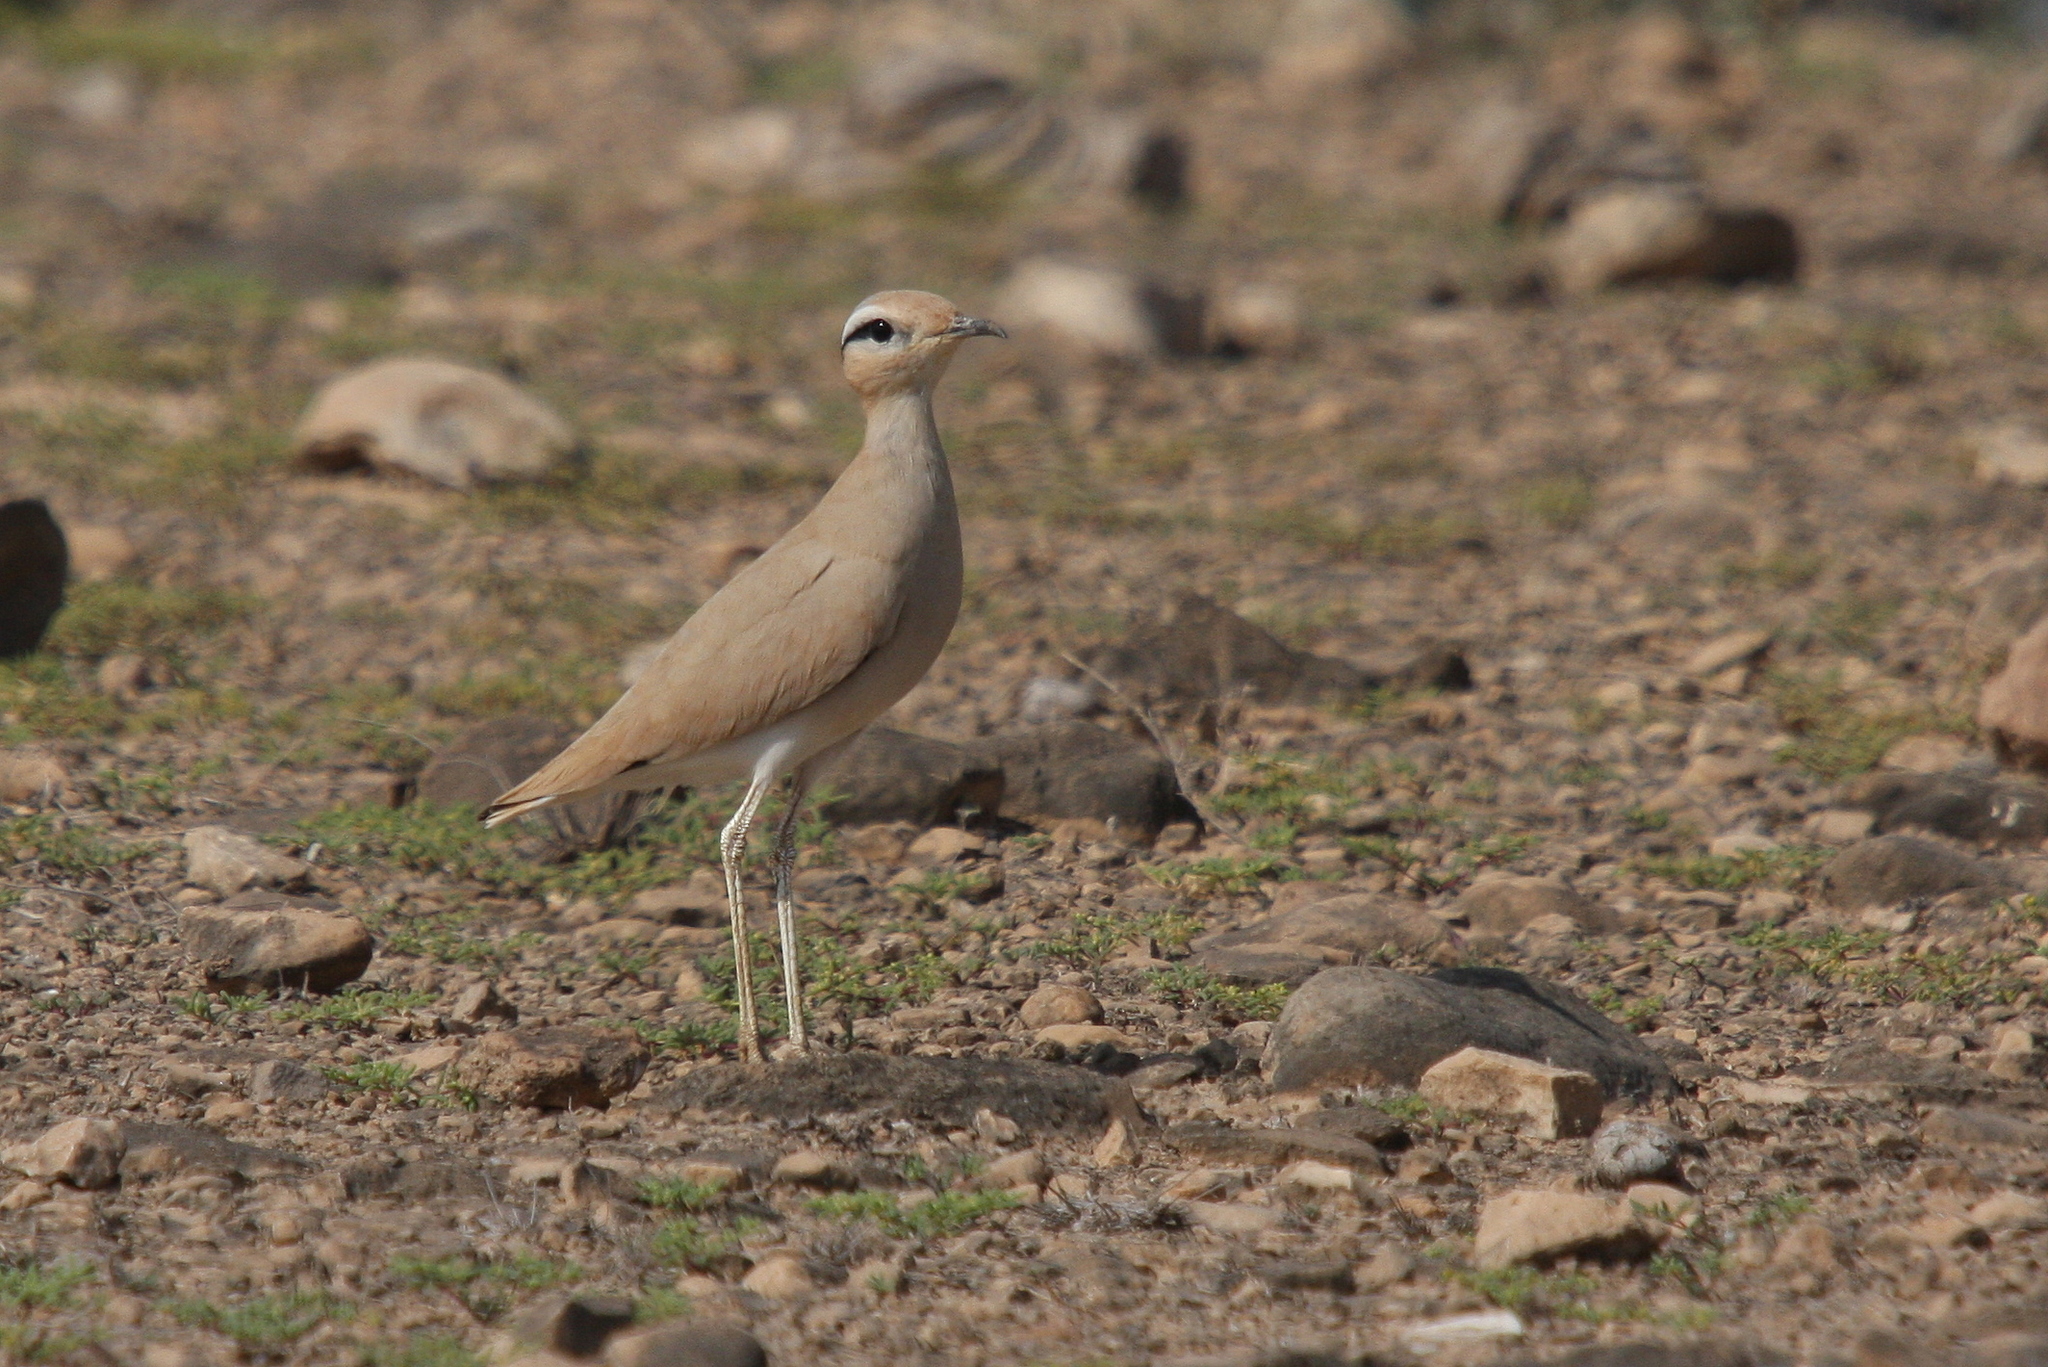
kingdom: Animalia
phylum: Chordata
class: Aves
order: Charadriiformes
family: Glareolidae
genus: Cursorius
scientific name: Cursorius cursor
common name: Cream-colored courser
